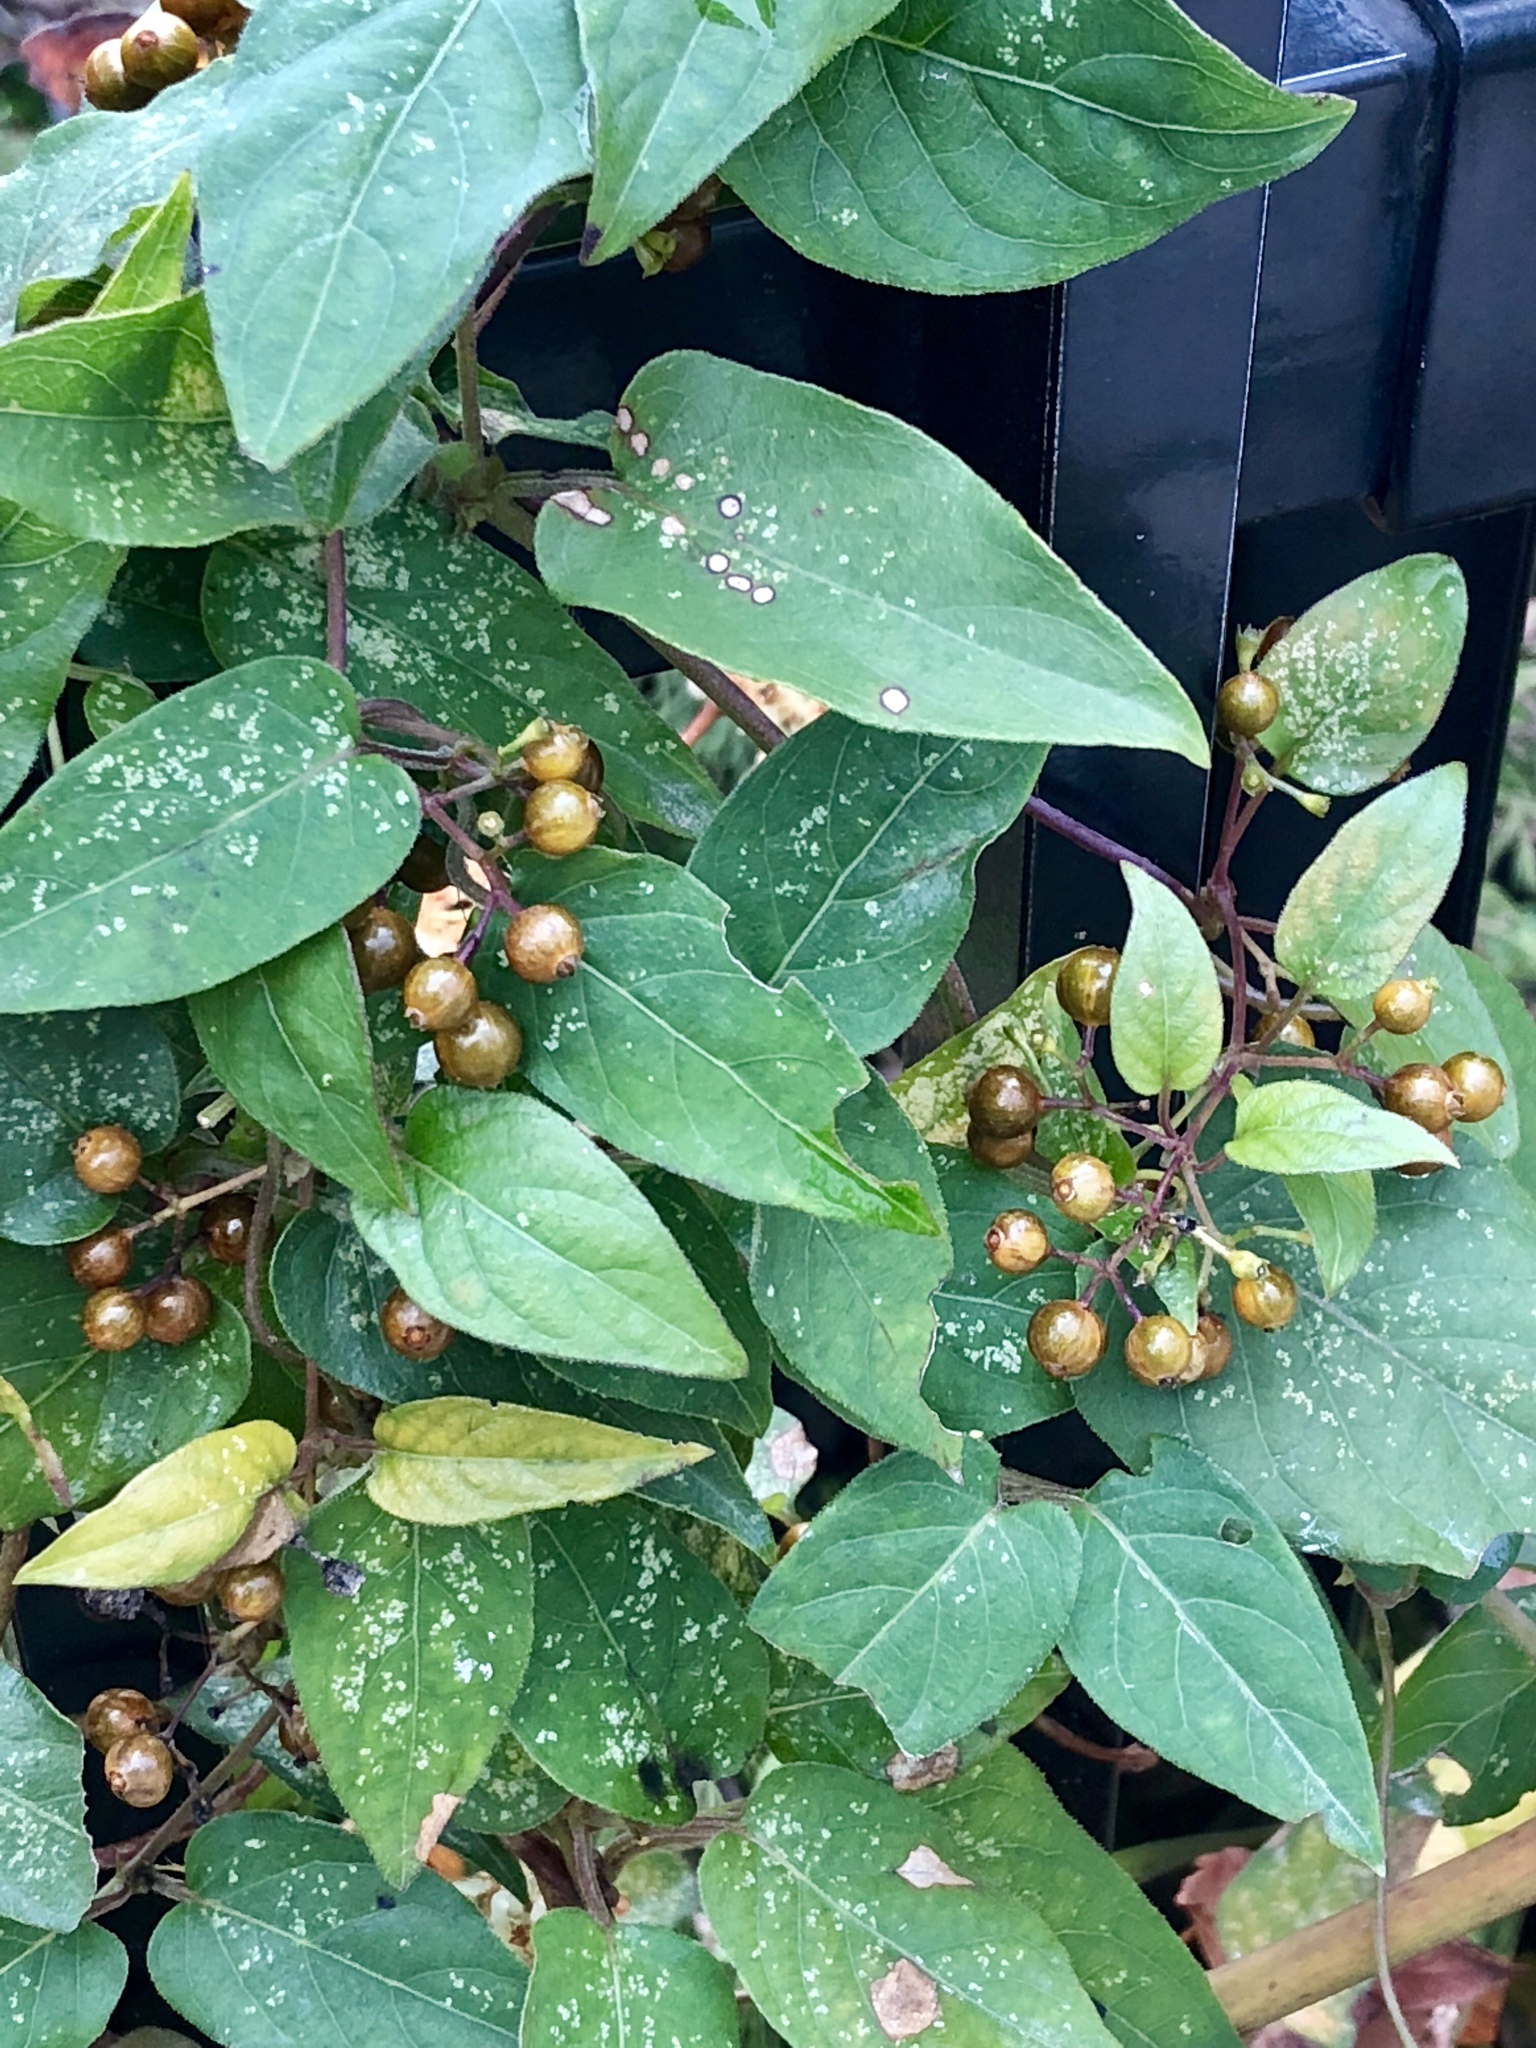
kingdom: Plantae
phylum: Tracheophyta
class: Magnoliopsida
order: Gentianales
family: Rubiaceae
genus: Paederia
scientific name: Paederia foetida
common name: Stinkvine
